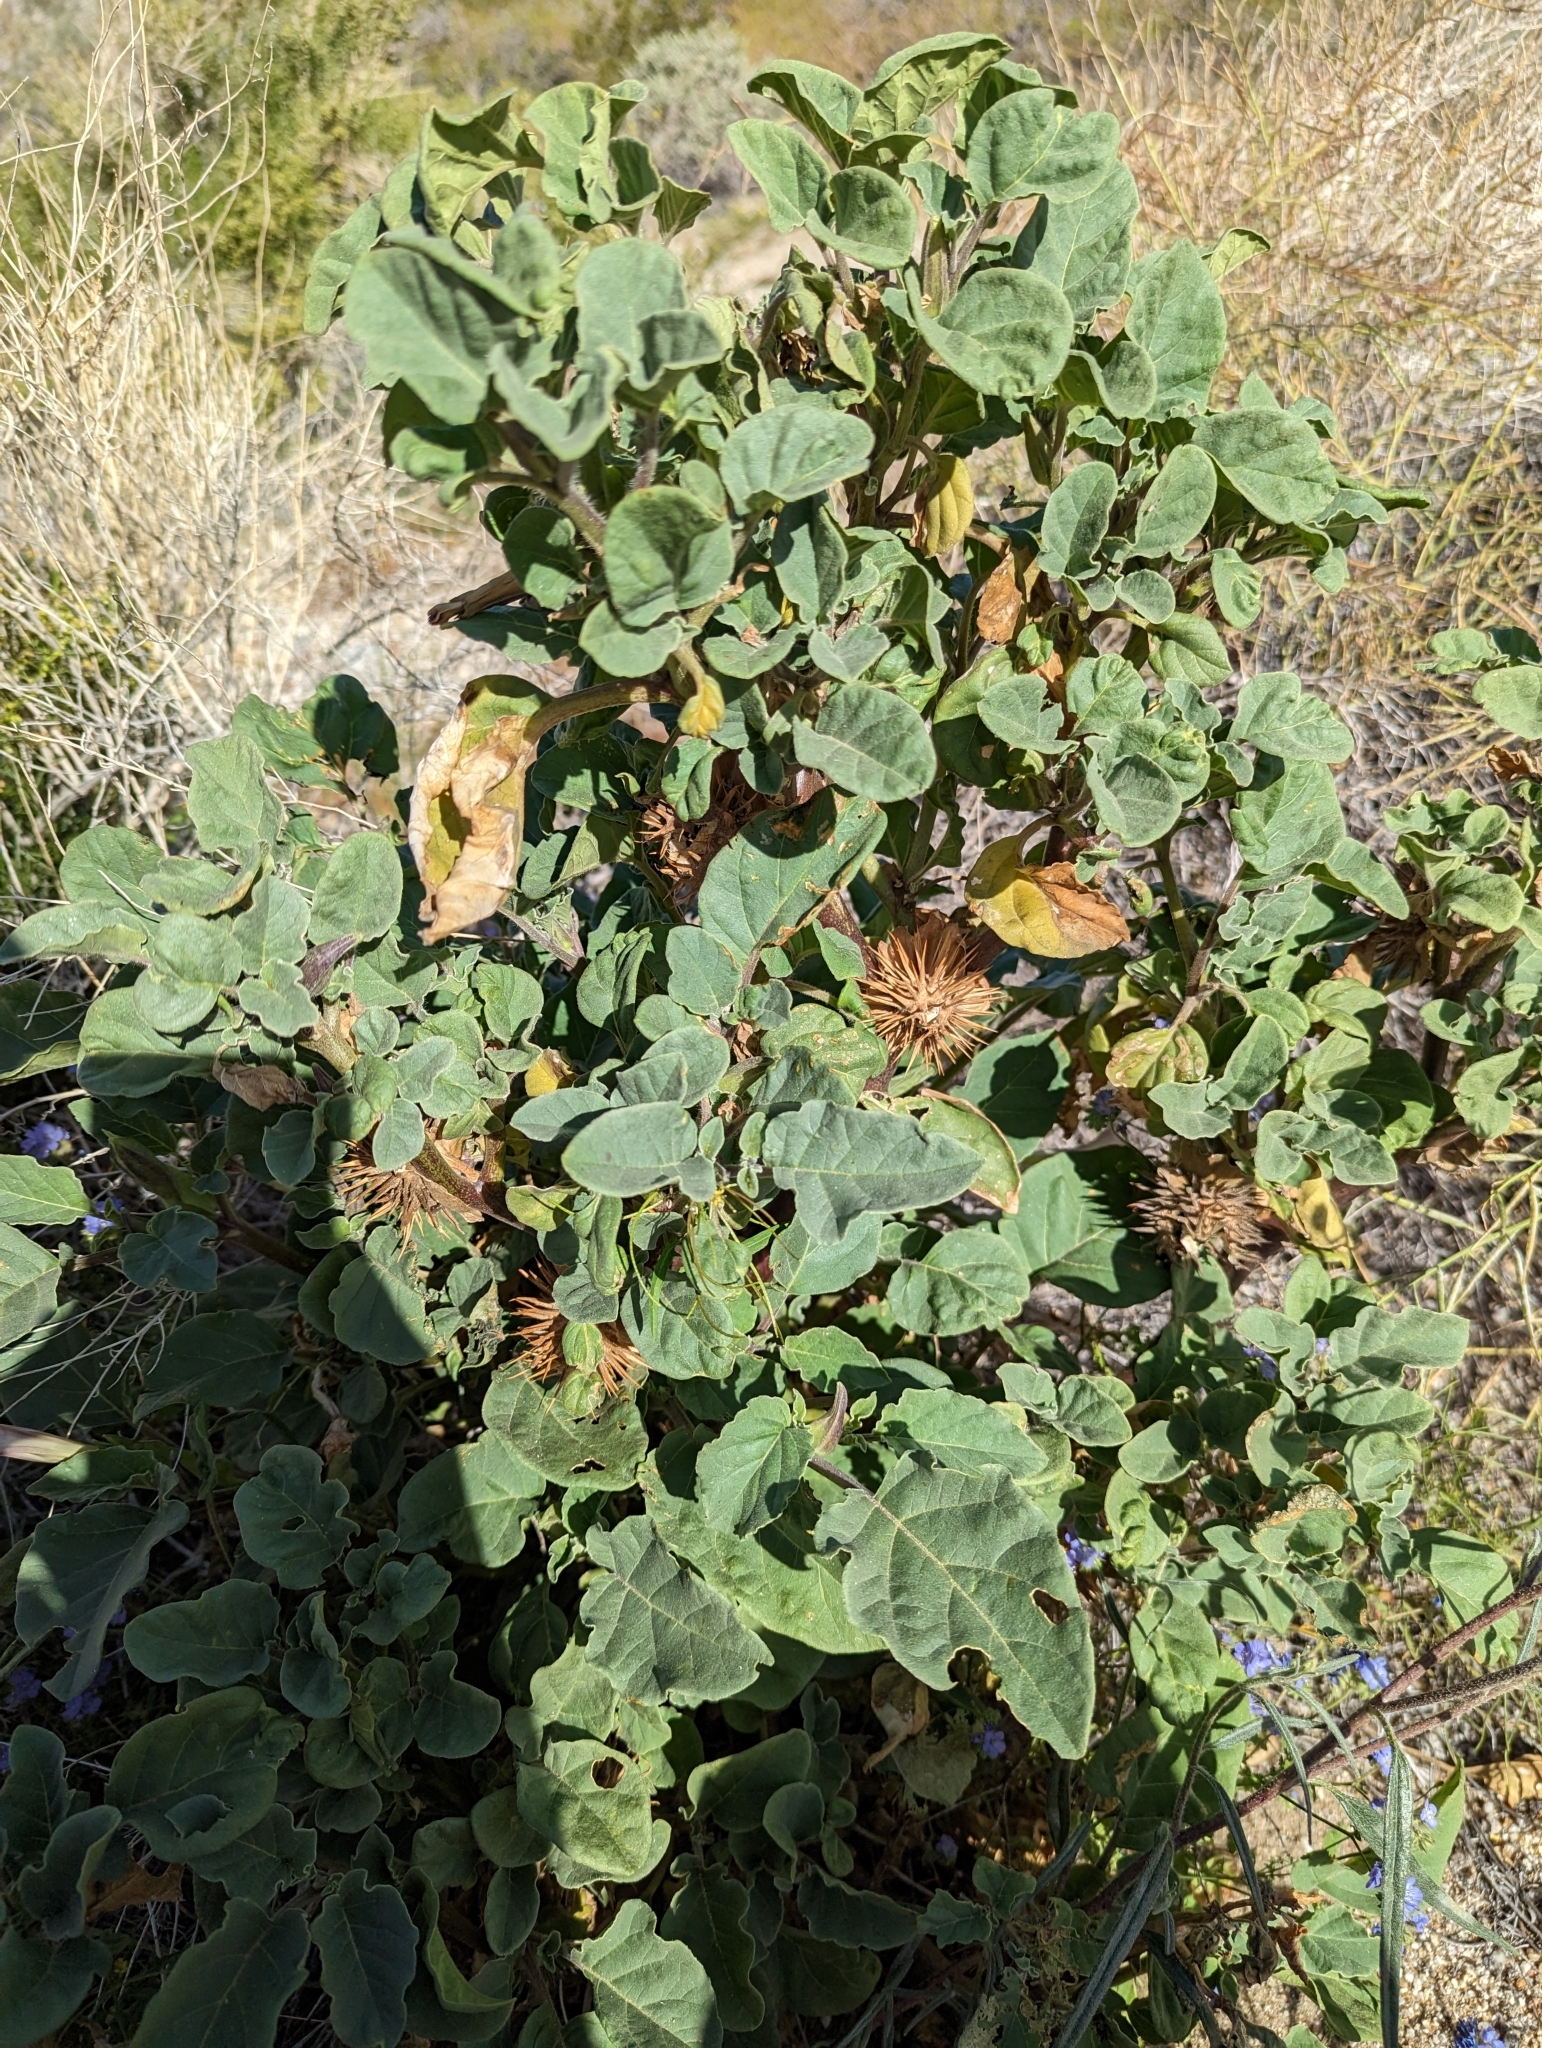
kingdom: Plantae
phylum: Tracheophyta
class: Magnoliopsida
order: Solanales
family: Solanaceae
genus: Datura
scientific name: Datura discolor
